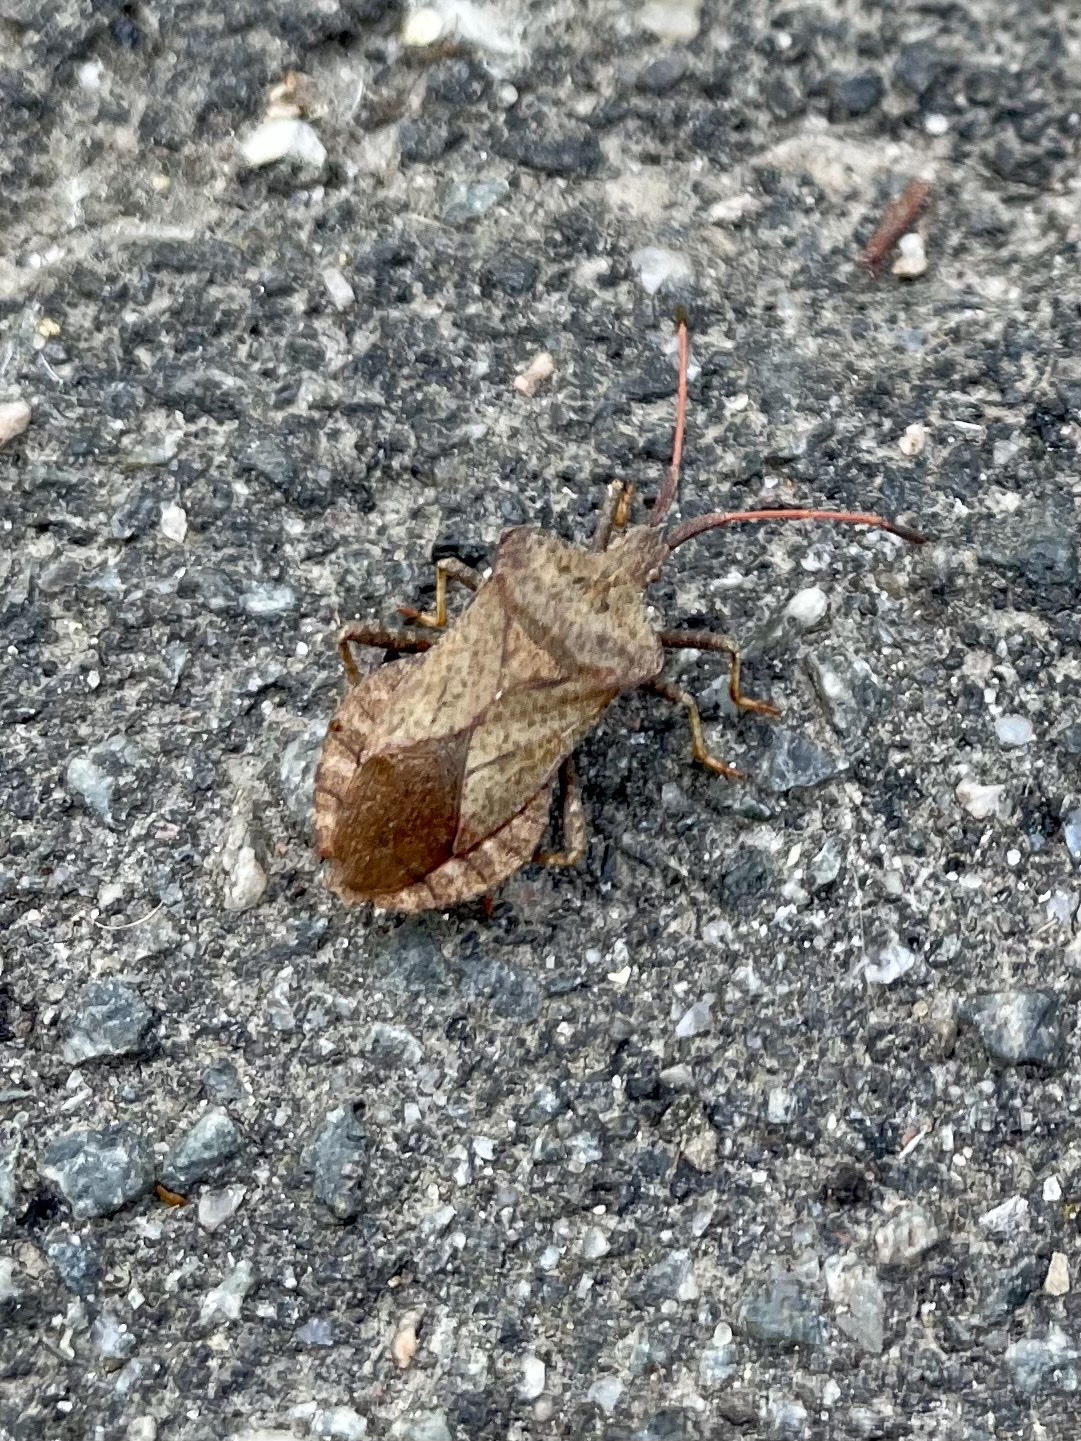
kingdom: Animalia
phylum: Arthropoda
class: Insecta
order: Hemiptera
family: Coreidae
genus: Coreus
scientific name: Coreus marginatus
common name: Dock bug
